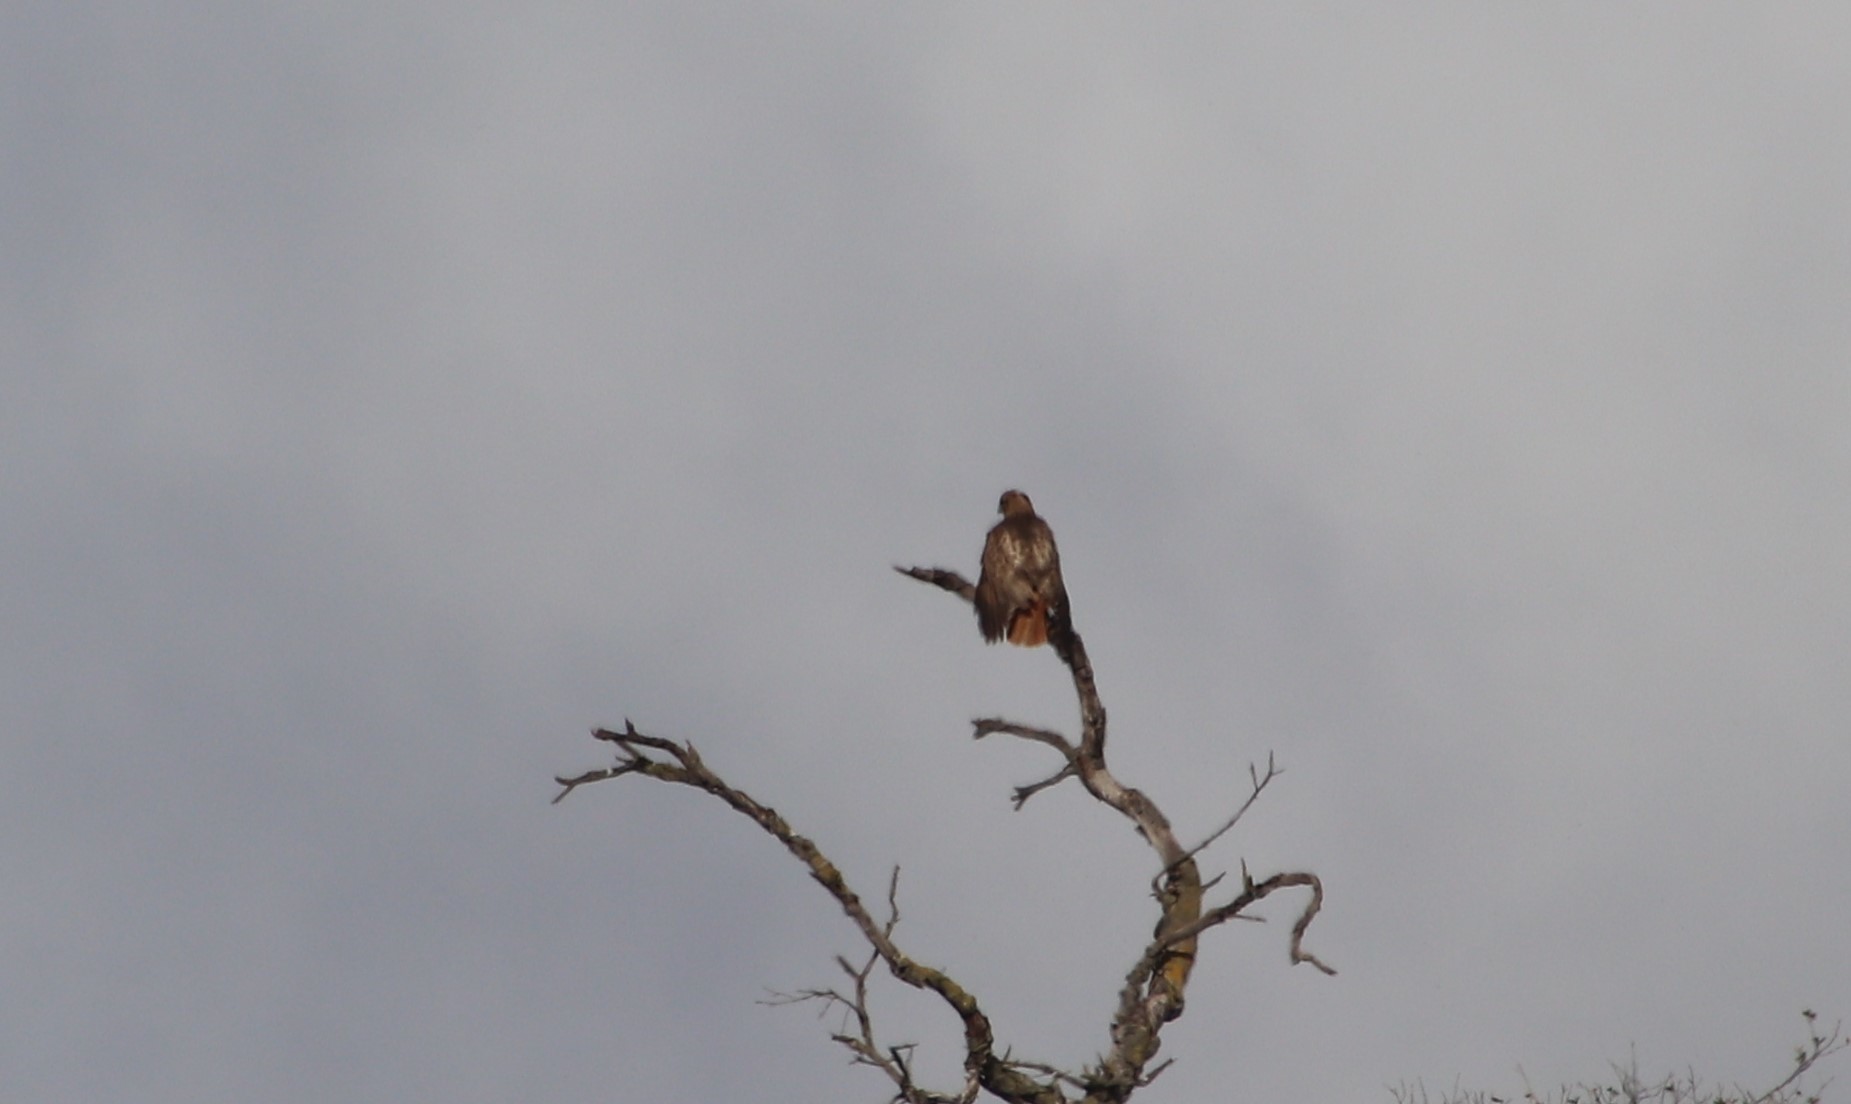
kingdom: Animalia
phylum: Chordata
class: Aves
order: Accipitriformes
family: Accipitridae
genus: Buteo
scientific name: Buteo jamaicensis
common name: Red-tailed hawk
